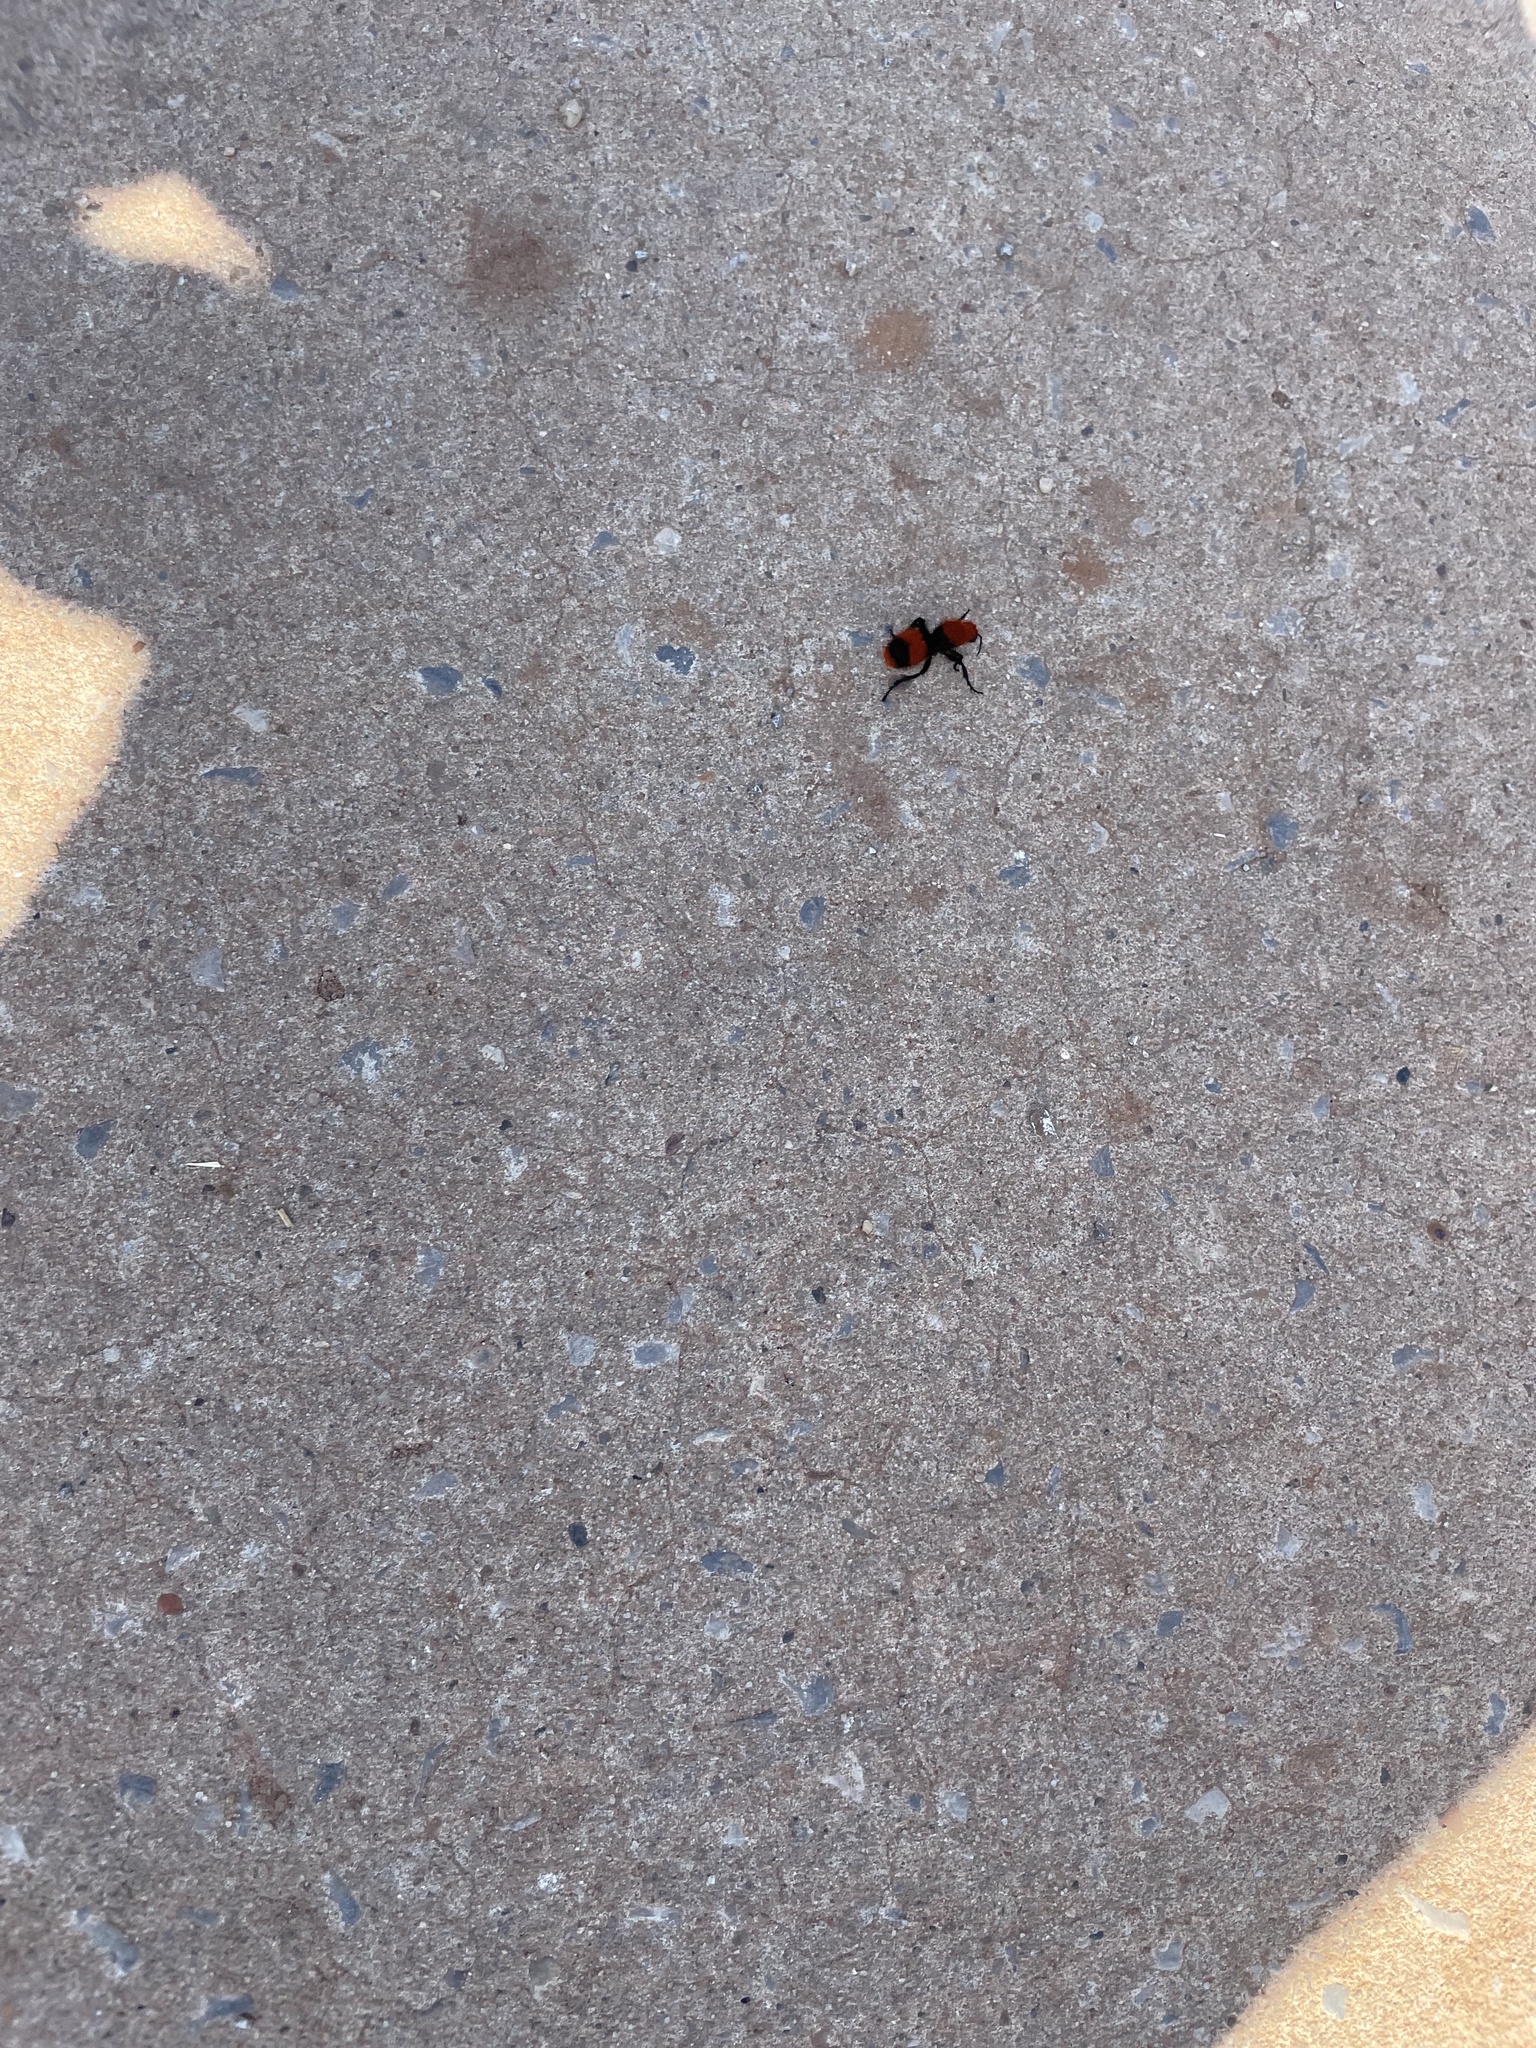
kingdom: Animalia
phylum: Arthropoda
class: Insecta
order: Hymenoptera
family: Mutillidae
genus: Dasymutilla
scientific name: Dasymutilla occidentalis
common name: Common eastern velvet ant
